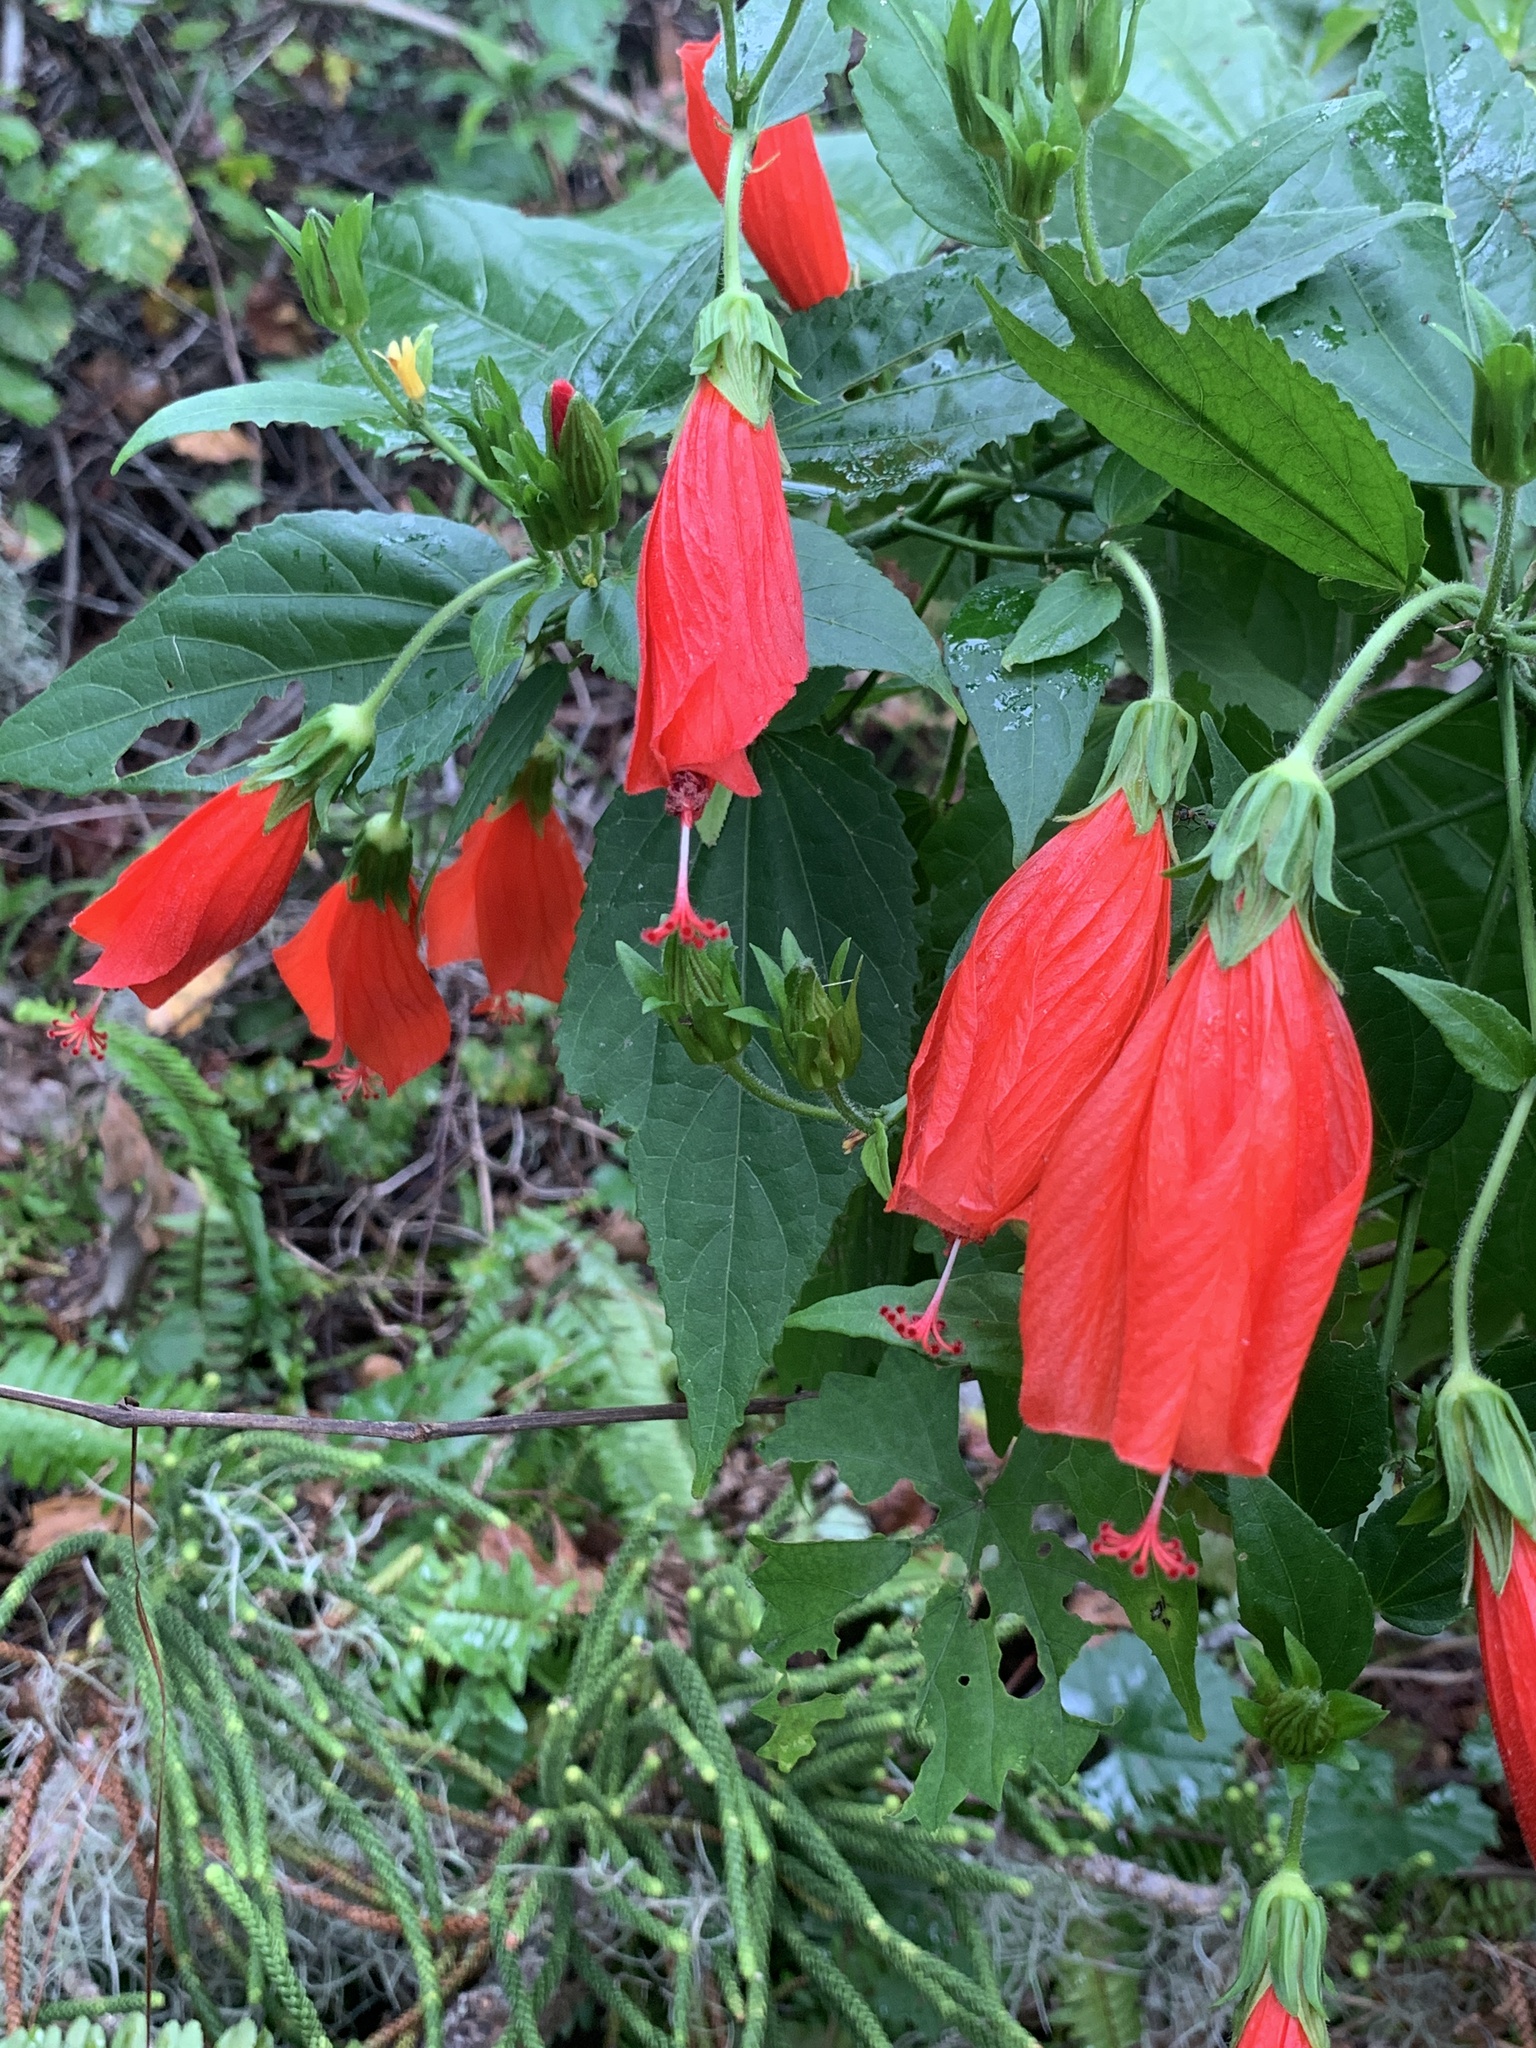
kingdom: Plantae
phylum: Tracheophyta
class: Magnoliopsida
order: Malvales
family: Malvaceae
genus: Malvaviscus
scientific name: Malvaviscus penduliflorus
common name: Mazapan
